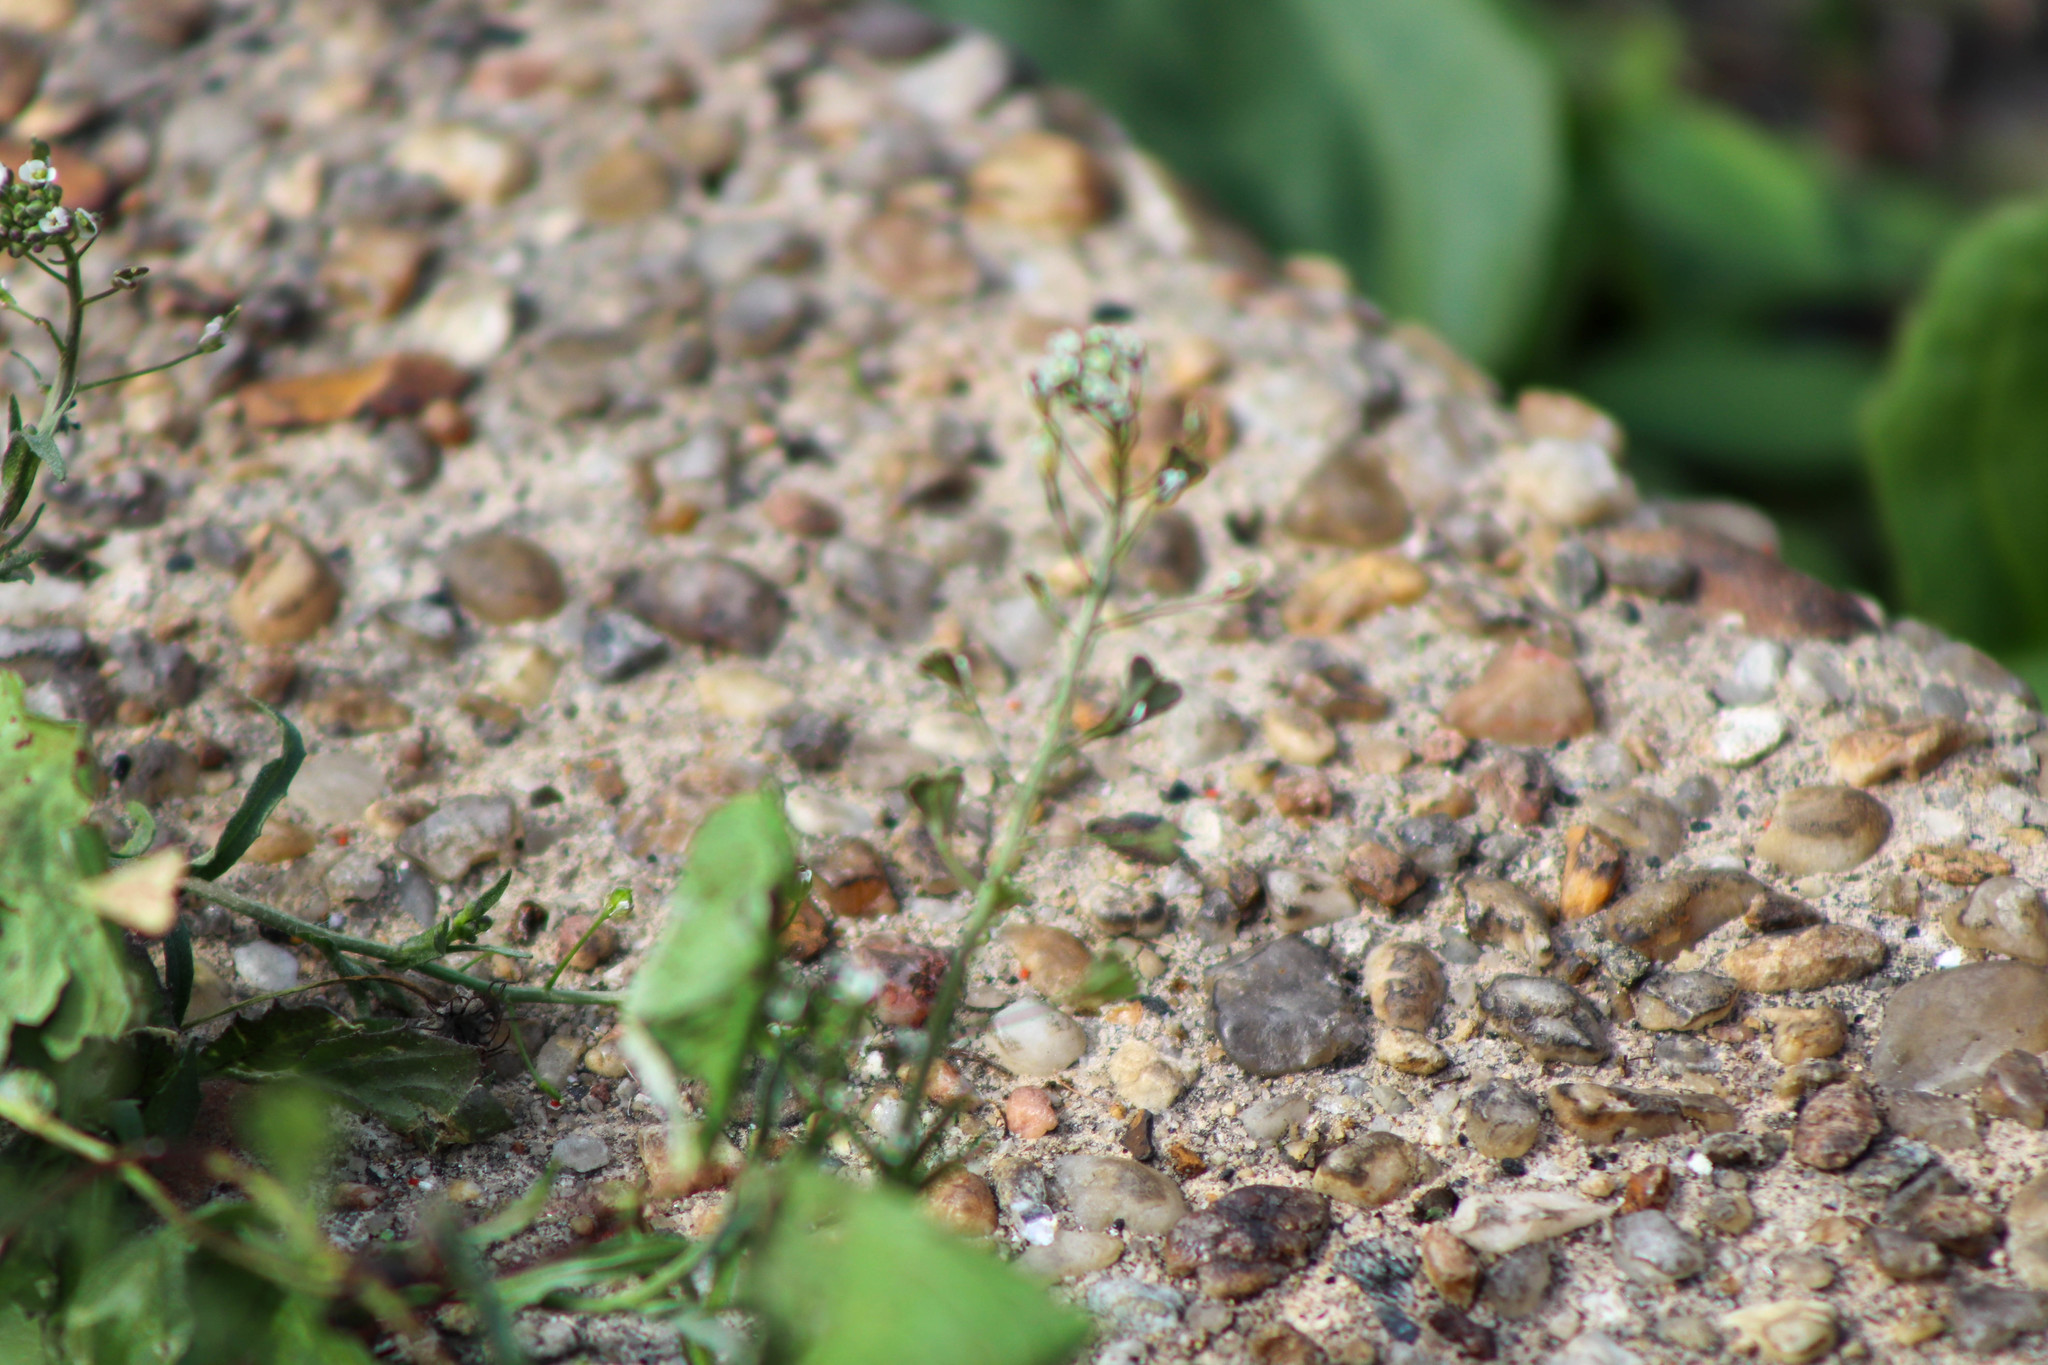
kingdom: Plantae
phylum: Tracheophyta
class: Magnoliopsida
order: Brassicales
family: Brassicaceae
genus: Capsella
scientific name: Capsella bursa-pastoris
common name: Shepherd's purse
